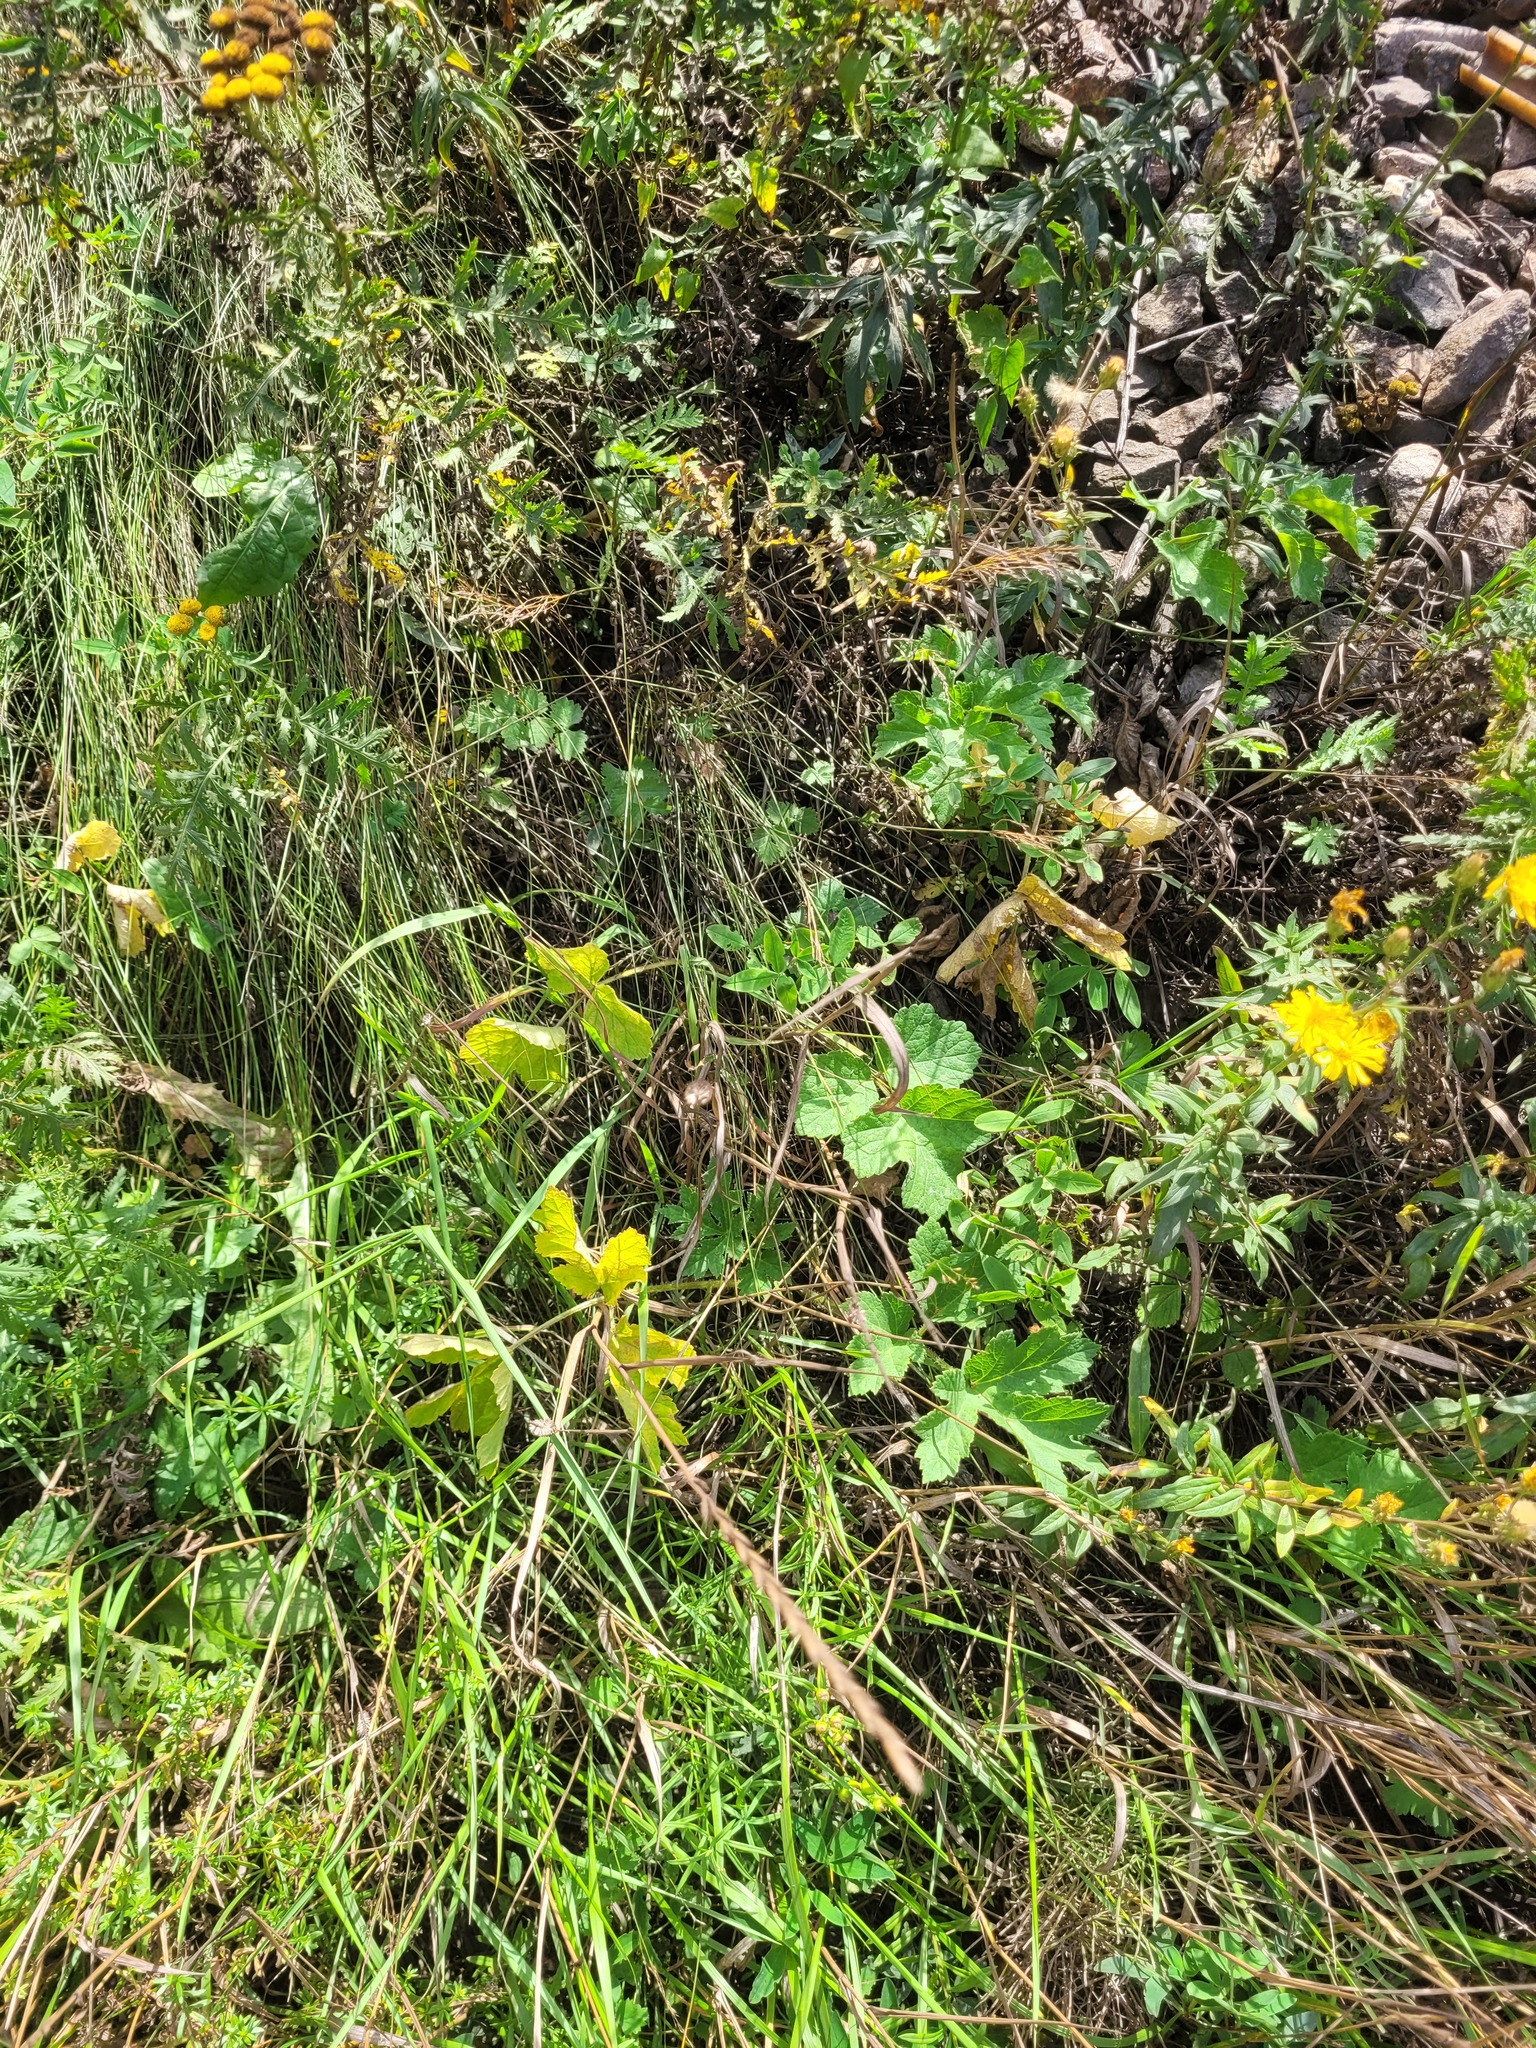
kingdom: Plantae
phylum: Tracheophyta
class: Magnoliopsida
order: Apiales
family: Apiaceae
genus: Heracleum
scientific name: Heracleum sphondylium
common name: Hogweed
